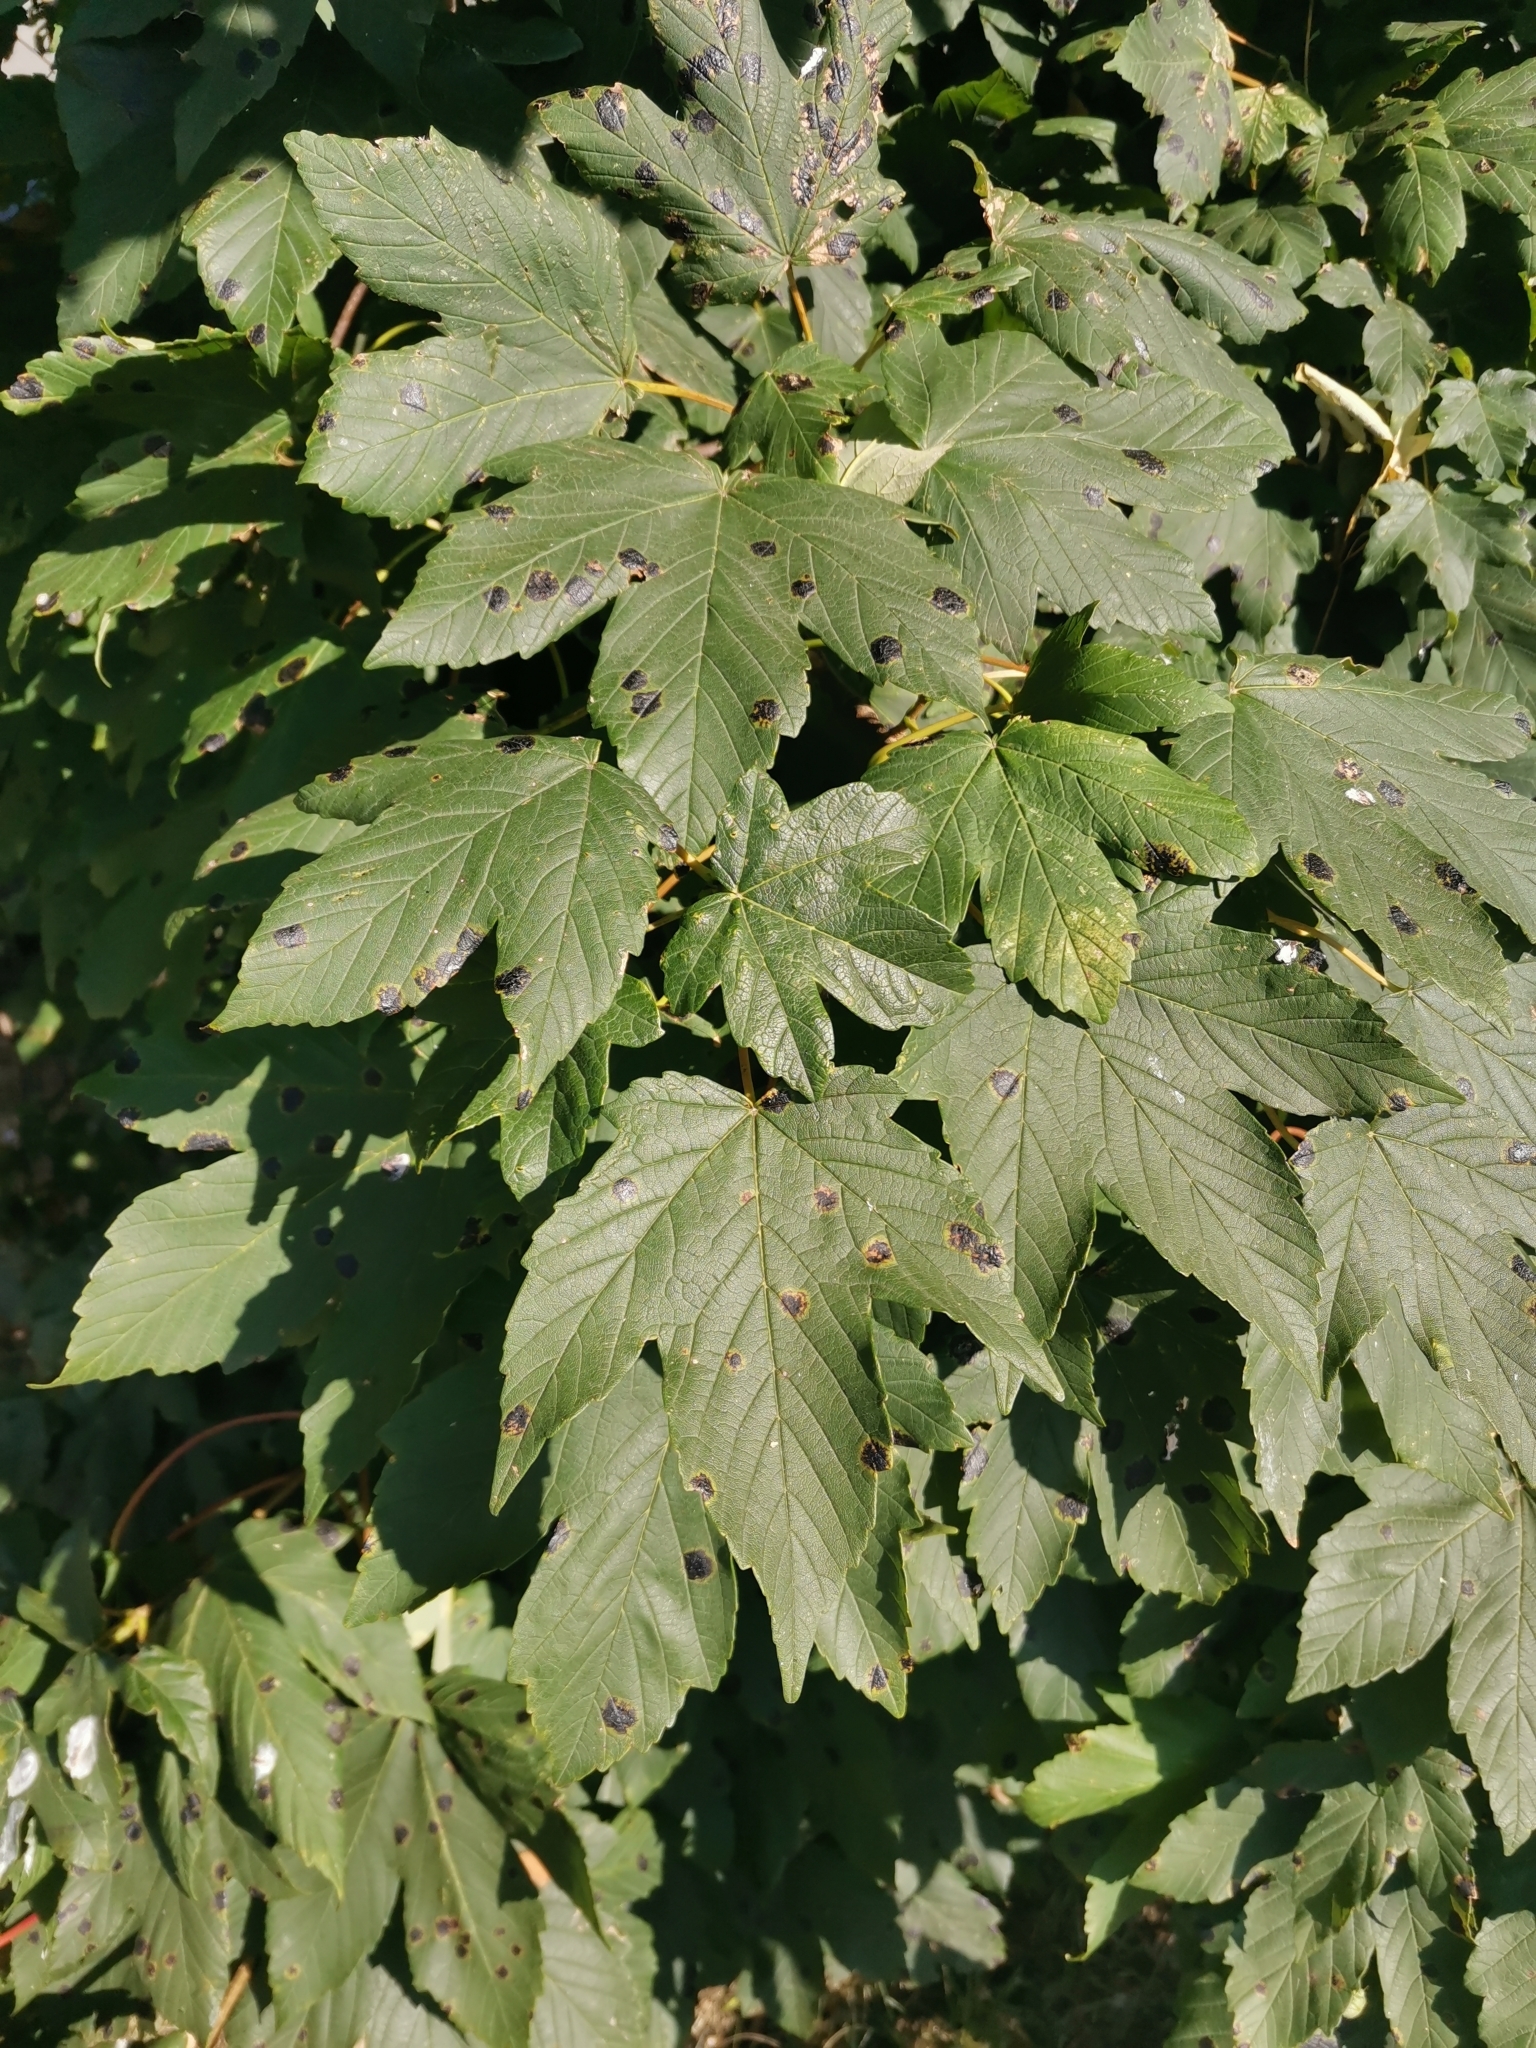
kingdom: Plantae
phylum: Tracheophyta
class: Magnoliopsida
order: Sapindales
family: Sapindaceae
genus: Acer
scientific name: Acer pseudoplatanus
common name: Sycamore
